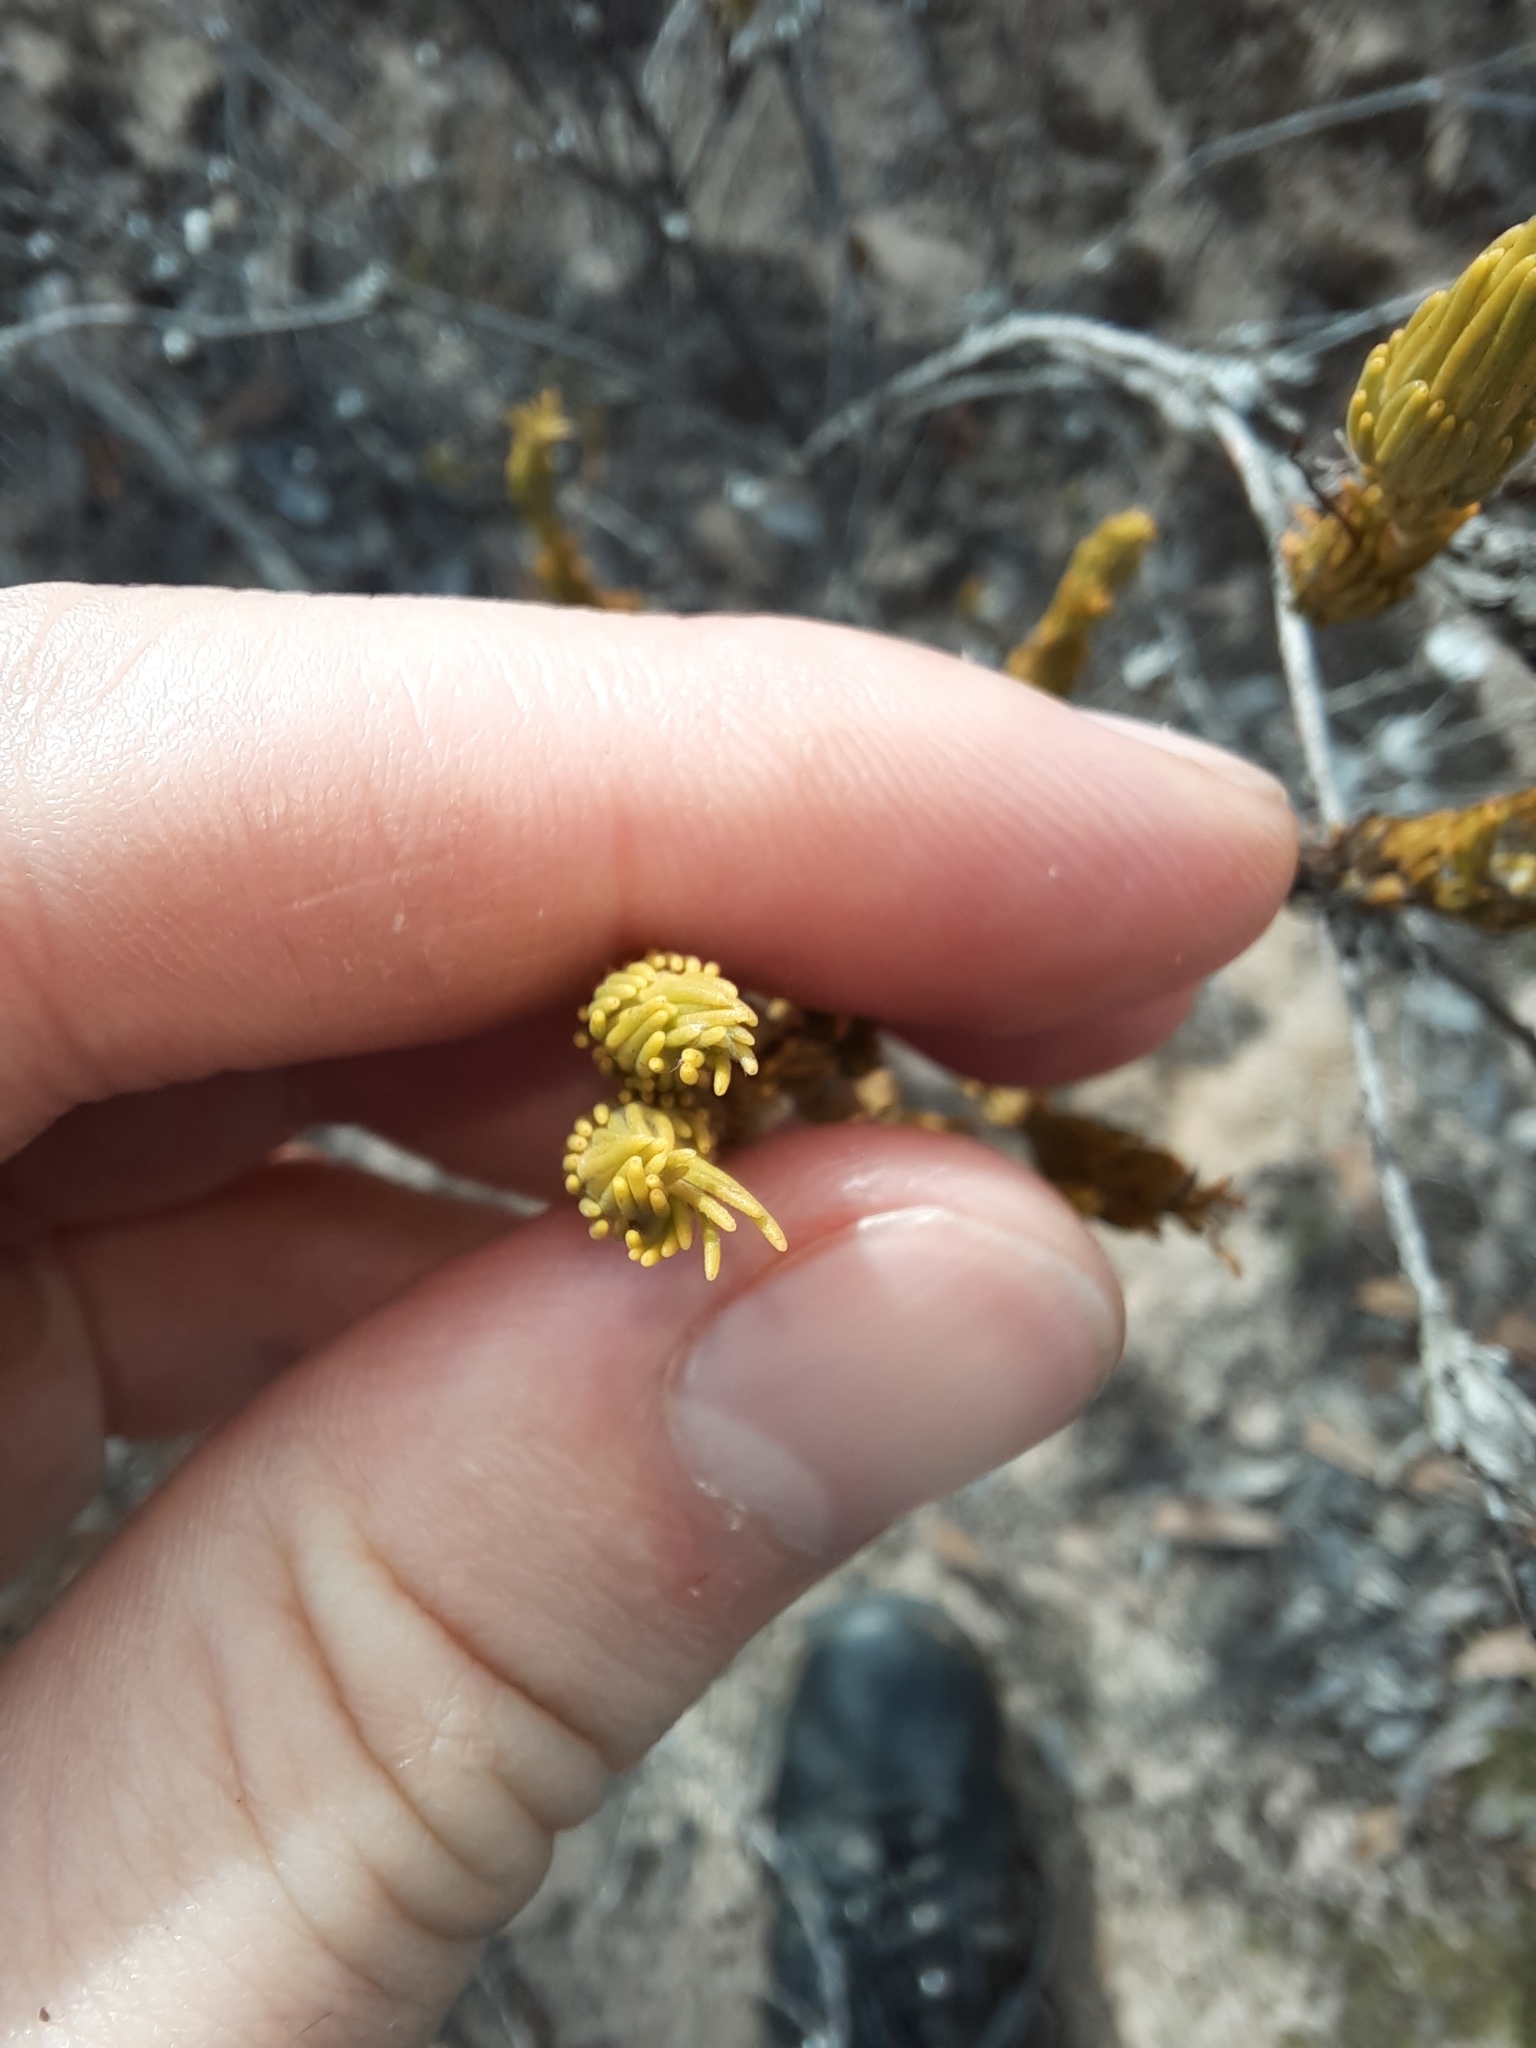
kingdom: Plantae
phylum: Tracheophyta
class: Magnoliopsida
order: Proteales
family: Proteaceae
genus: Adenanthos
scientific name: Adenanthos terminalis
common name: Yellow gland-flower
